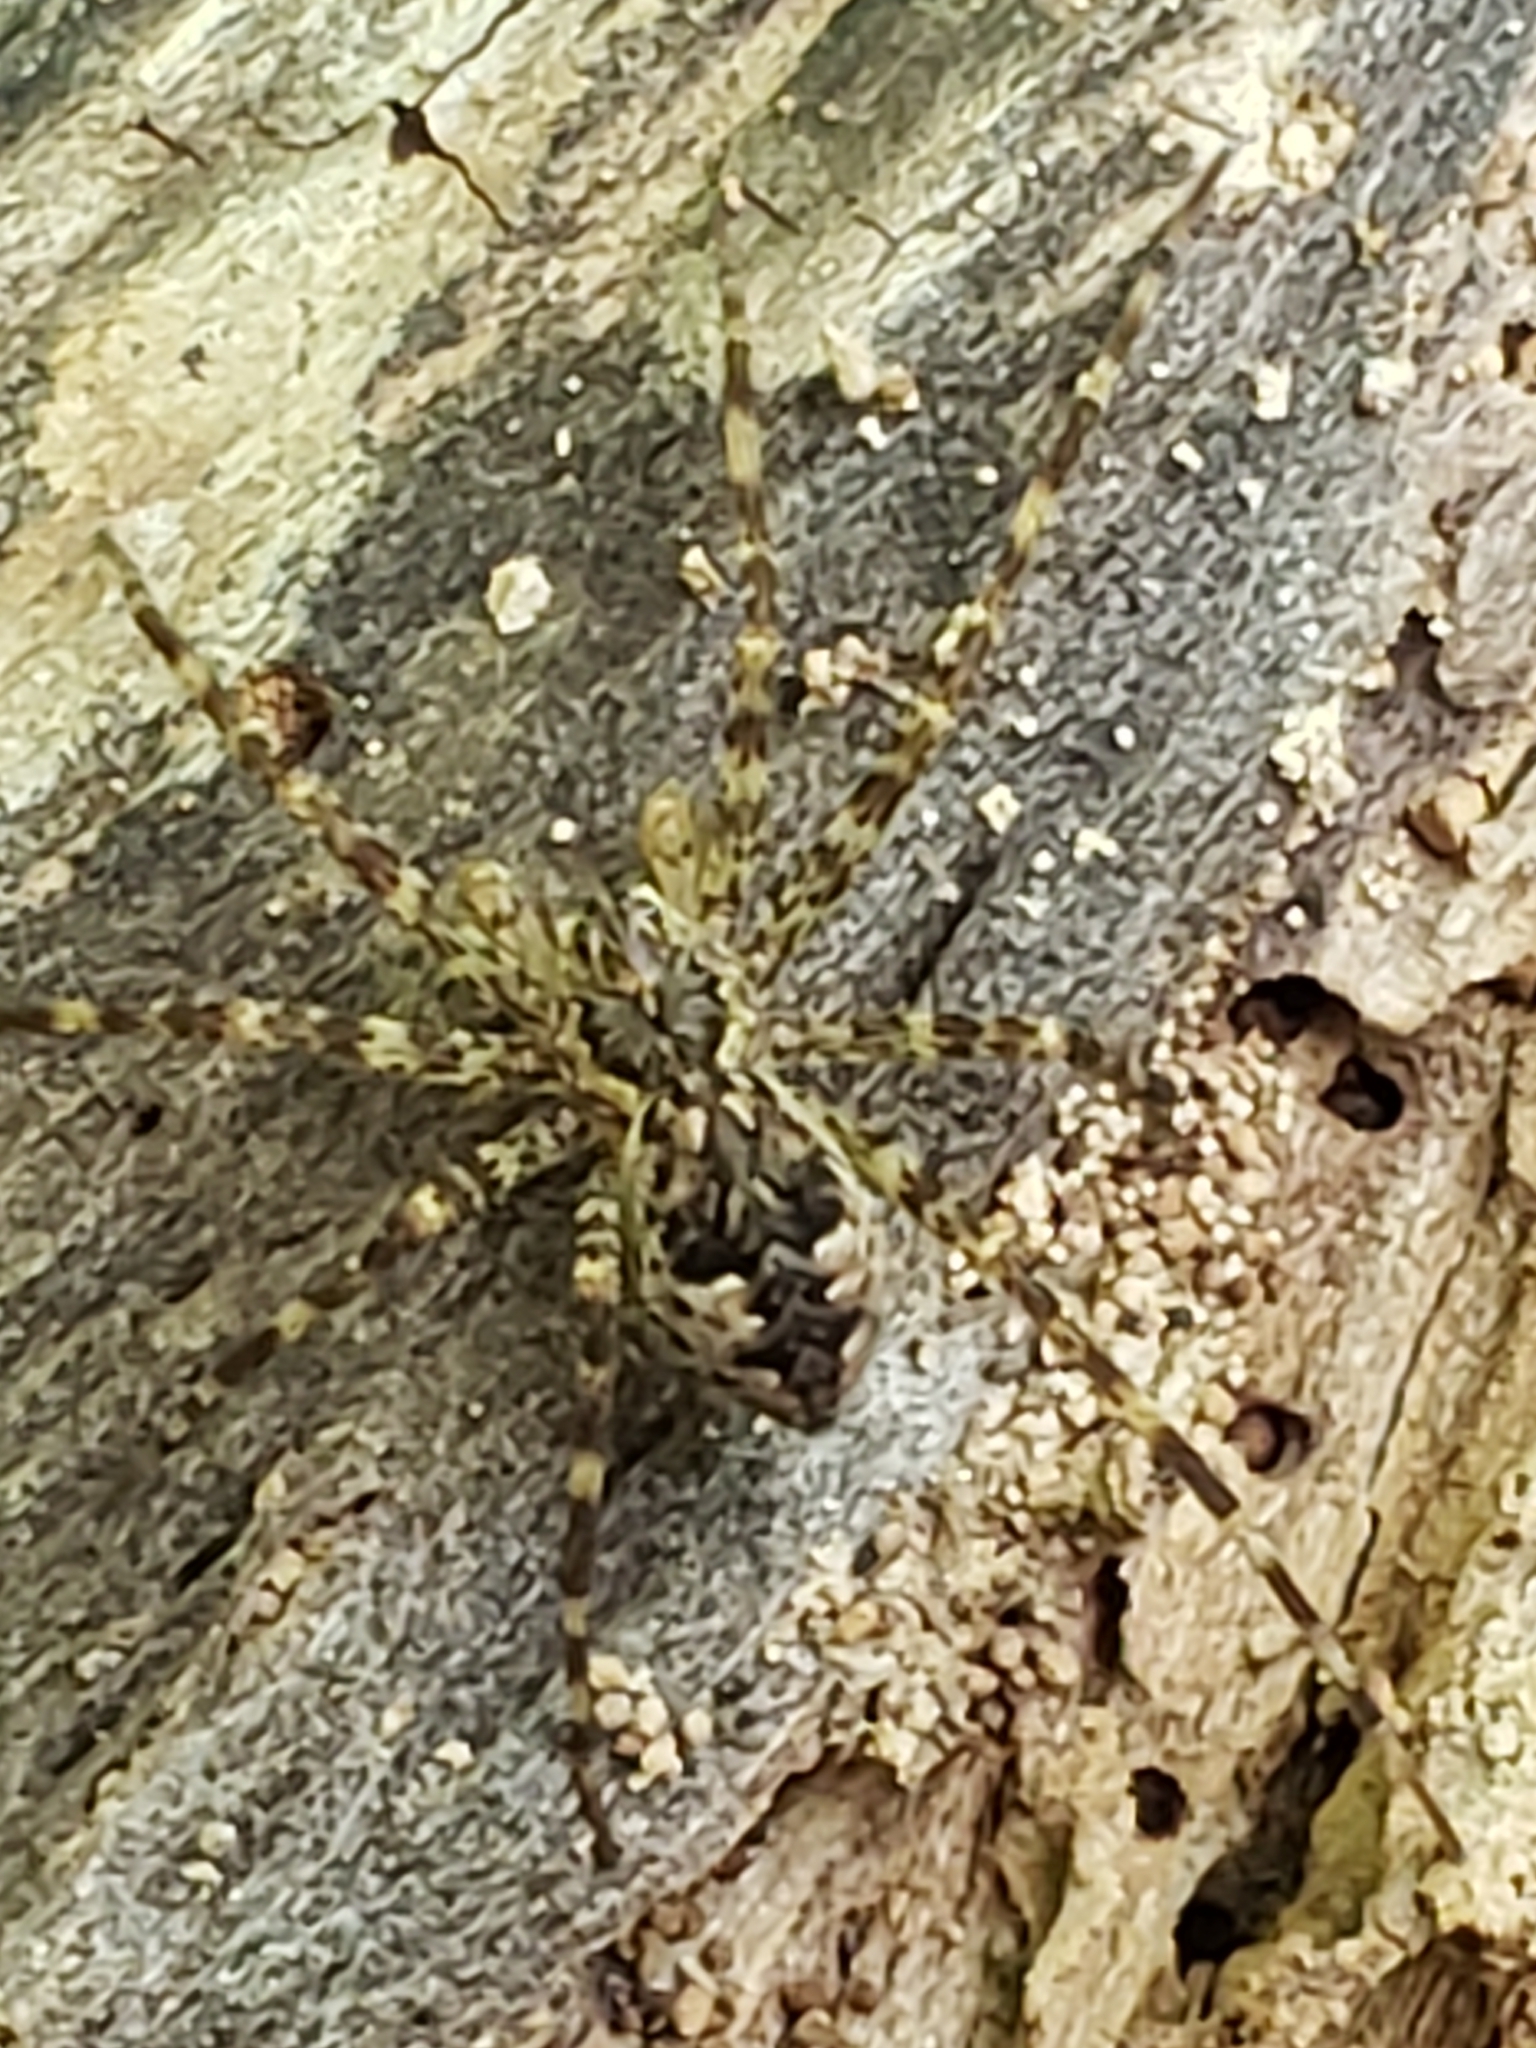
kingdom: Animalia
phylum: Arthropoda
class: Arachnida
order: Araneae
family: Pisauridae
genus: Dolomedes
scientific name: Dolomedes tenebrosus
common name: Dark fishing spider
